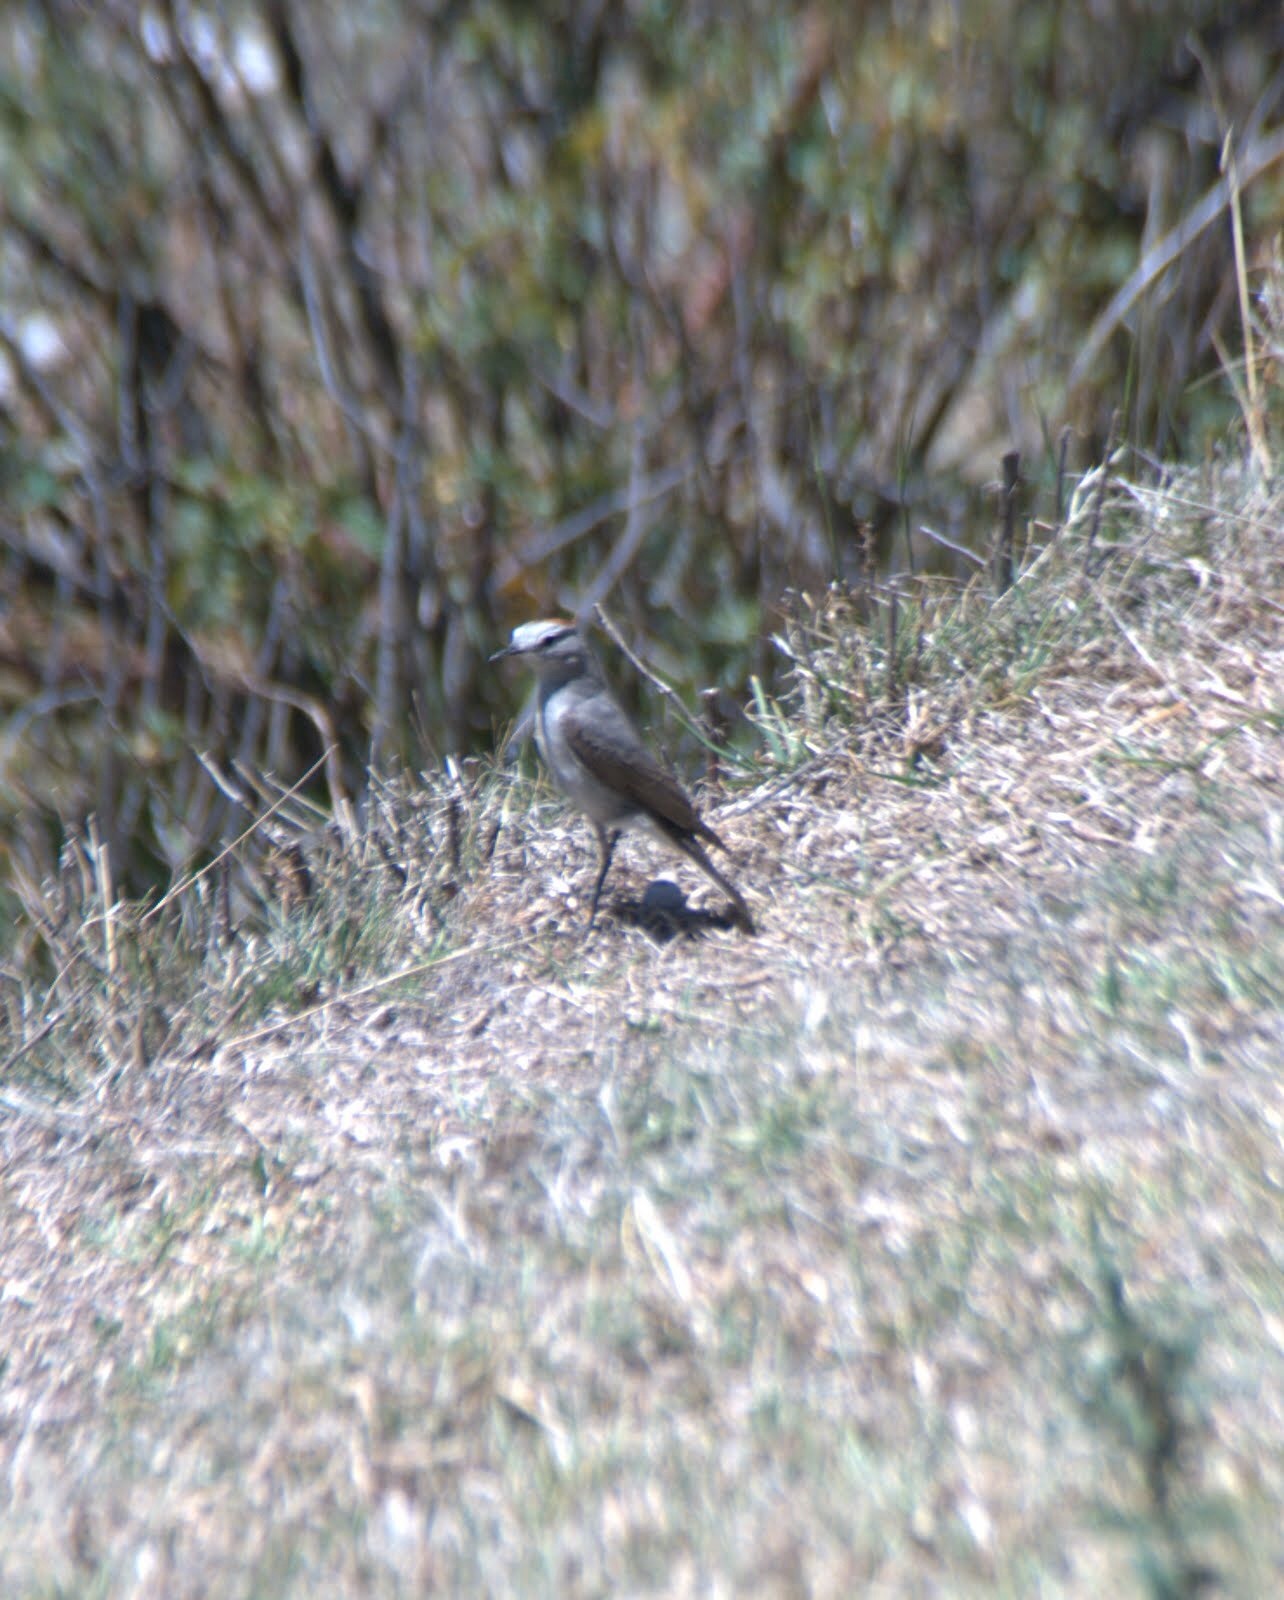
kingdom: Animalia
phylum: Chordata
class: Aves
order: Passeriformes
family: Tyrannidae
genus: Muscisaxicola
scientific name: Muscisaxicola rufivertex
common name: Rufous-naped ground tyrant
